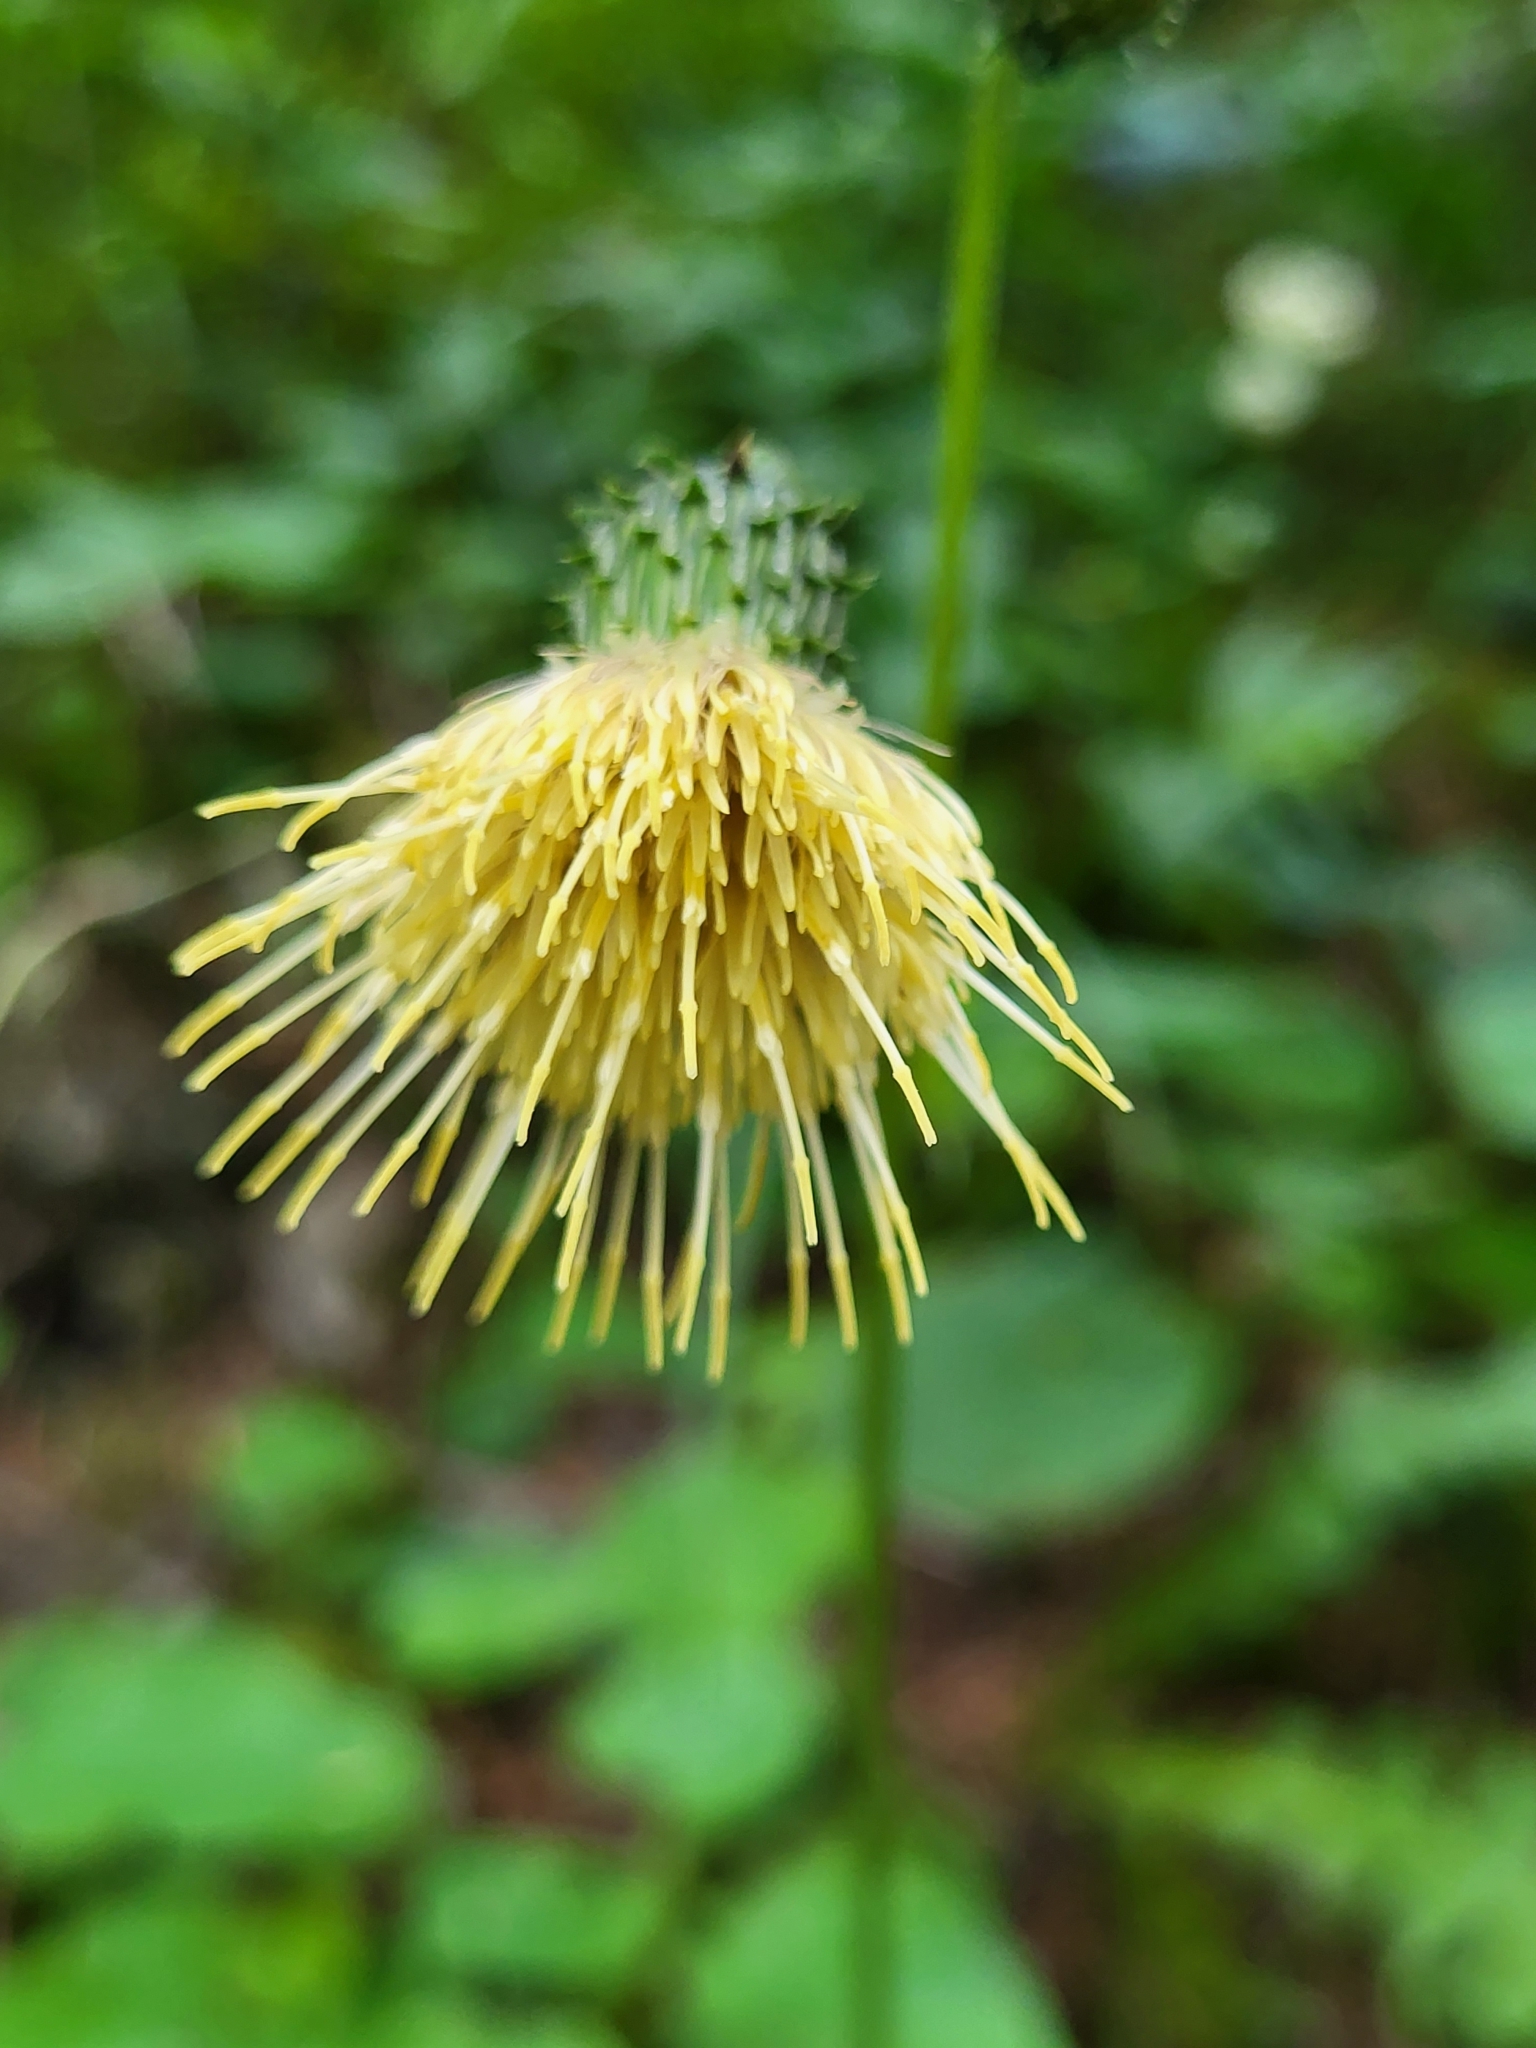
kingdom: Plantae
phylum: Tracheophyta
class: Magnoliopsida
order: Asterales
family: Asteraceae
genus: Cirsium
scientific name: Cirsium erisithales
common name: Yellow thistle
